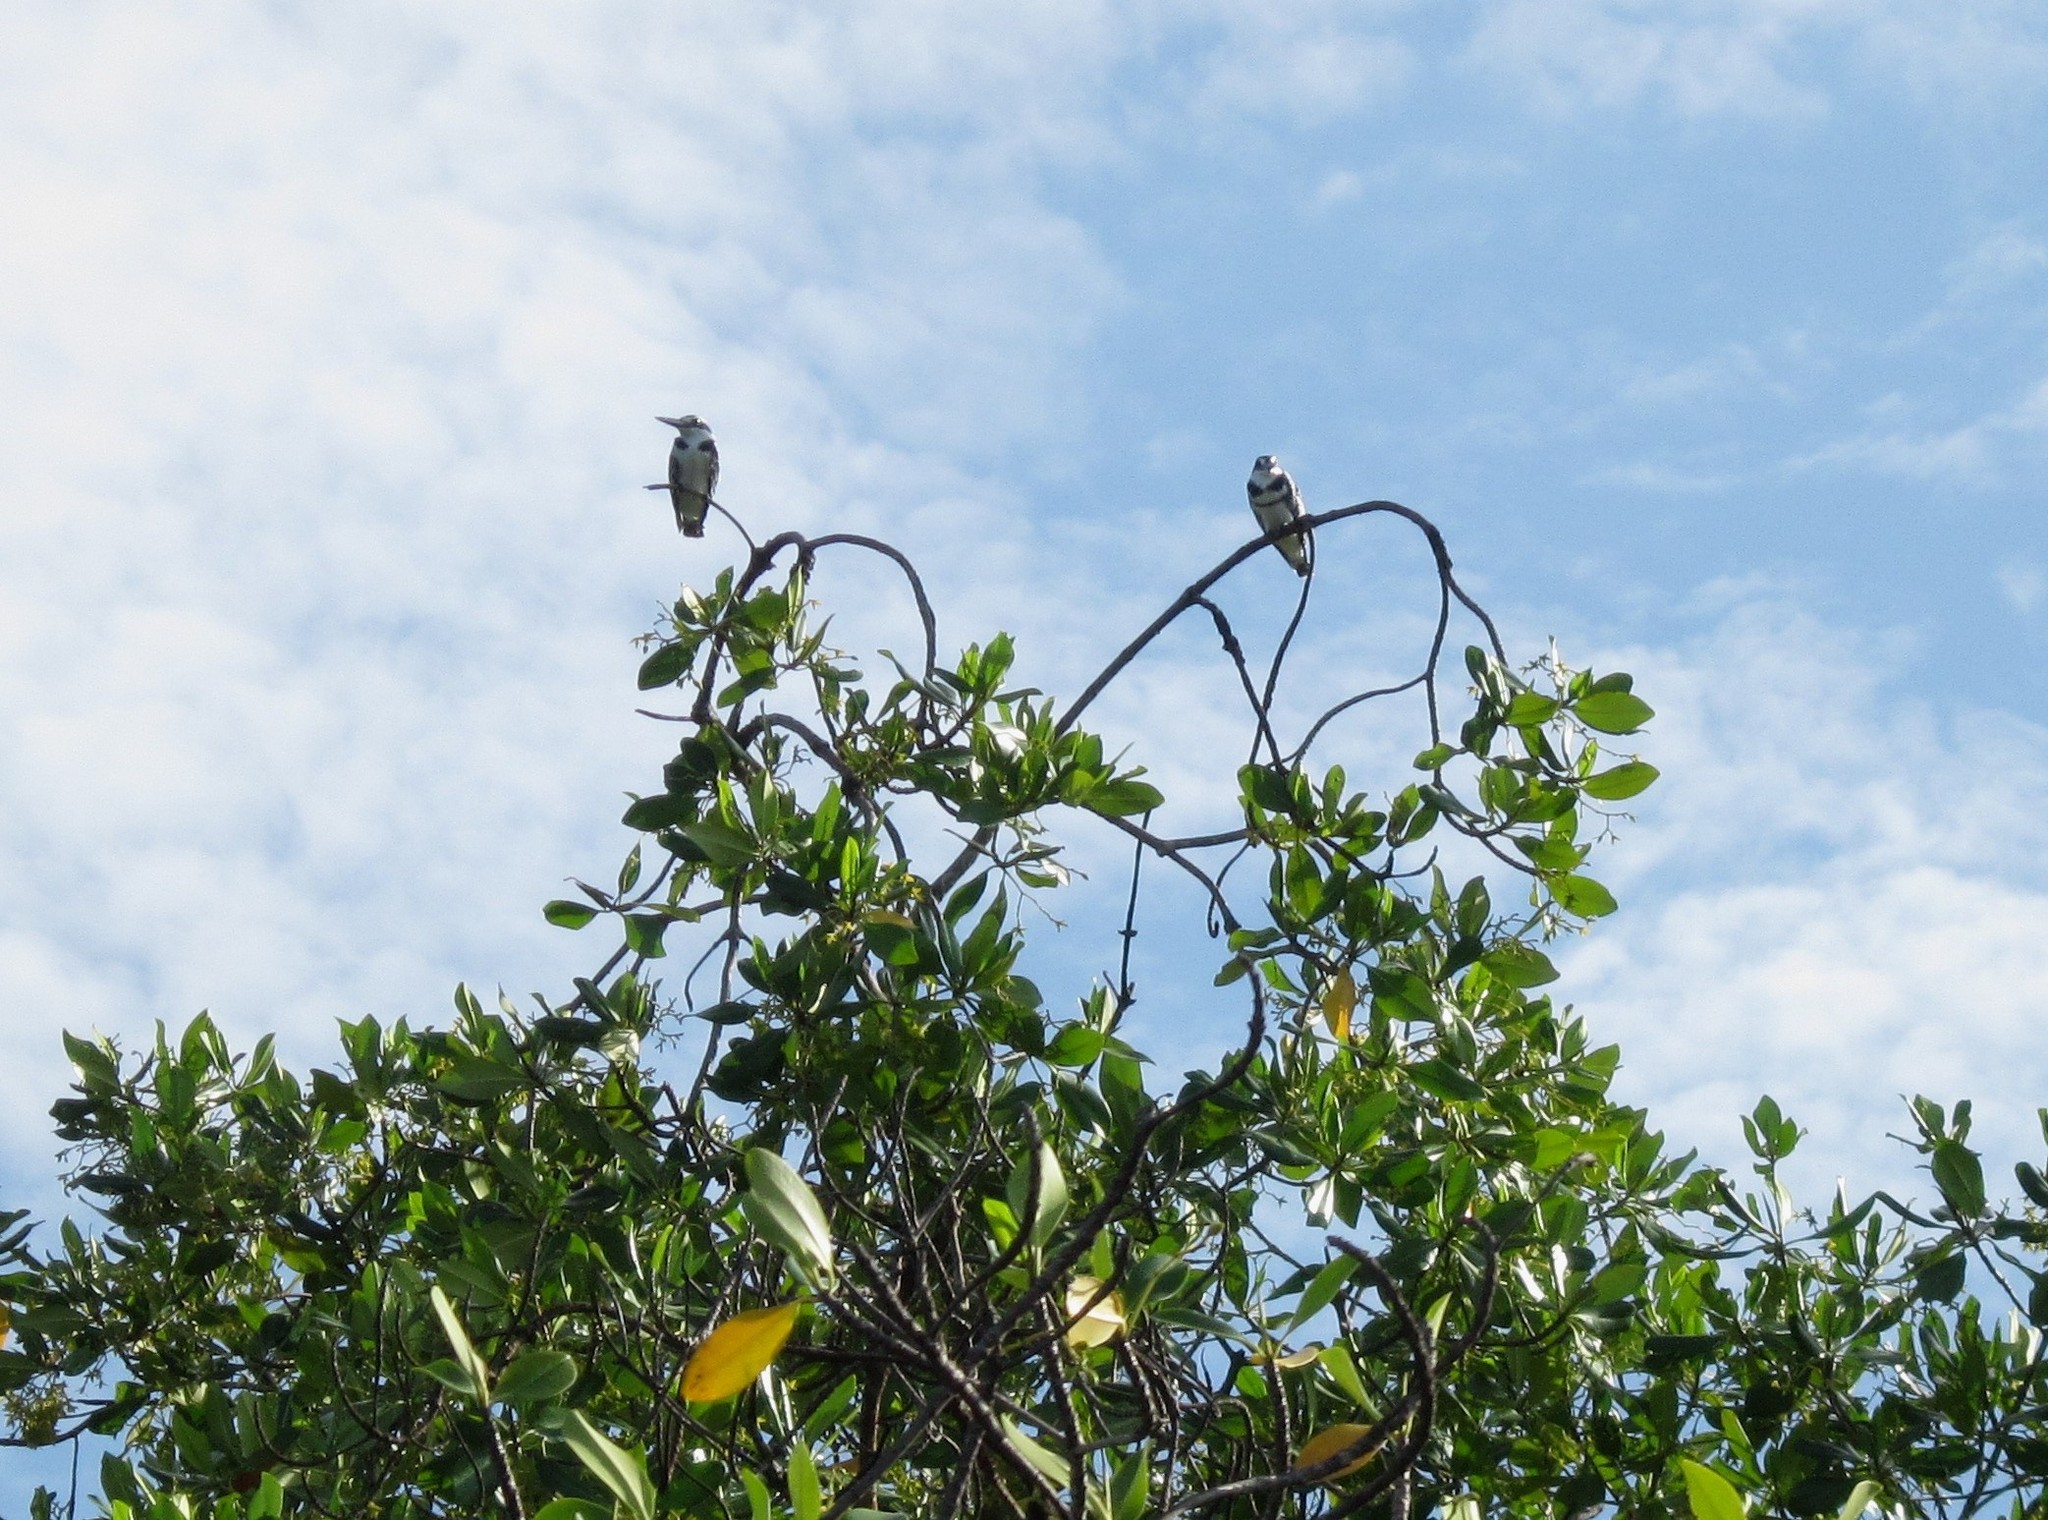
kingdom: Animalia
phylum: Chordata
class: Aves
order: Coraciiformes
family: Alcedinidae
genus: Ceryle
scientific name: Ceryle rudis
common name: Pied kingfisher
